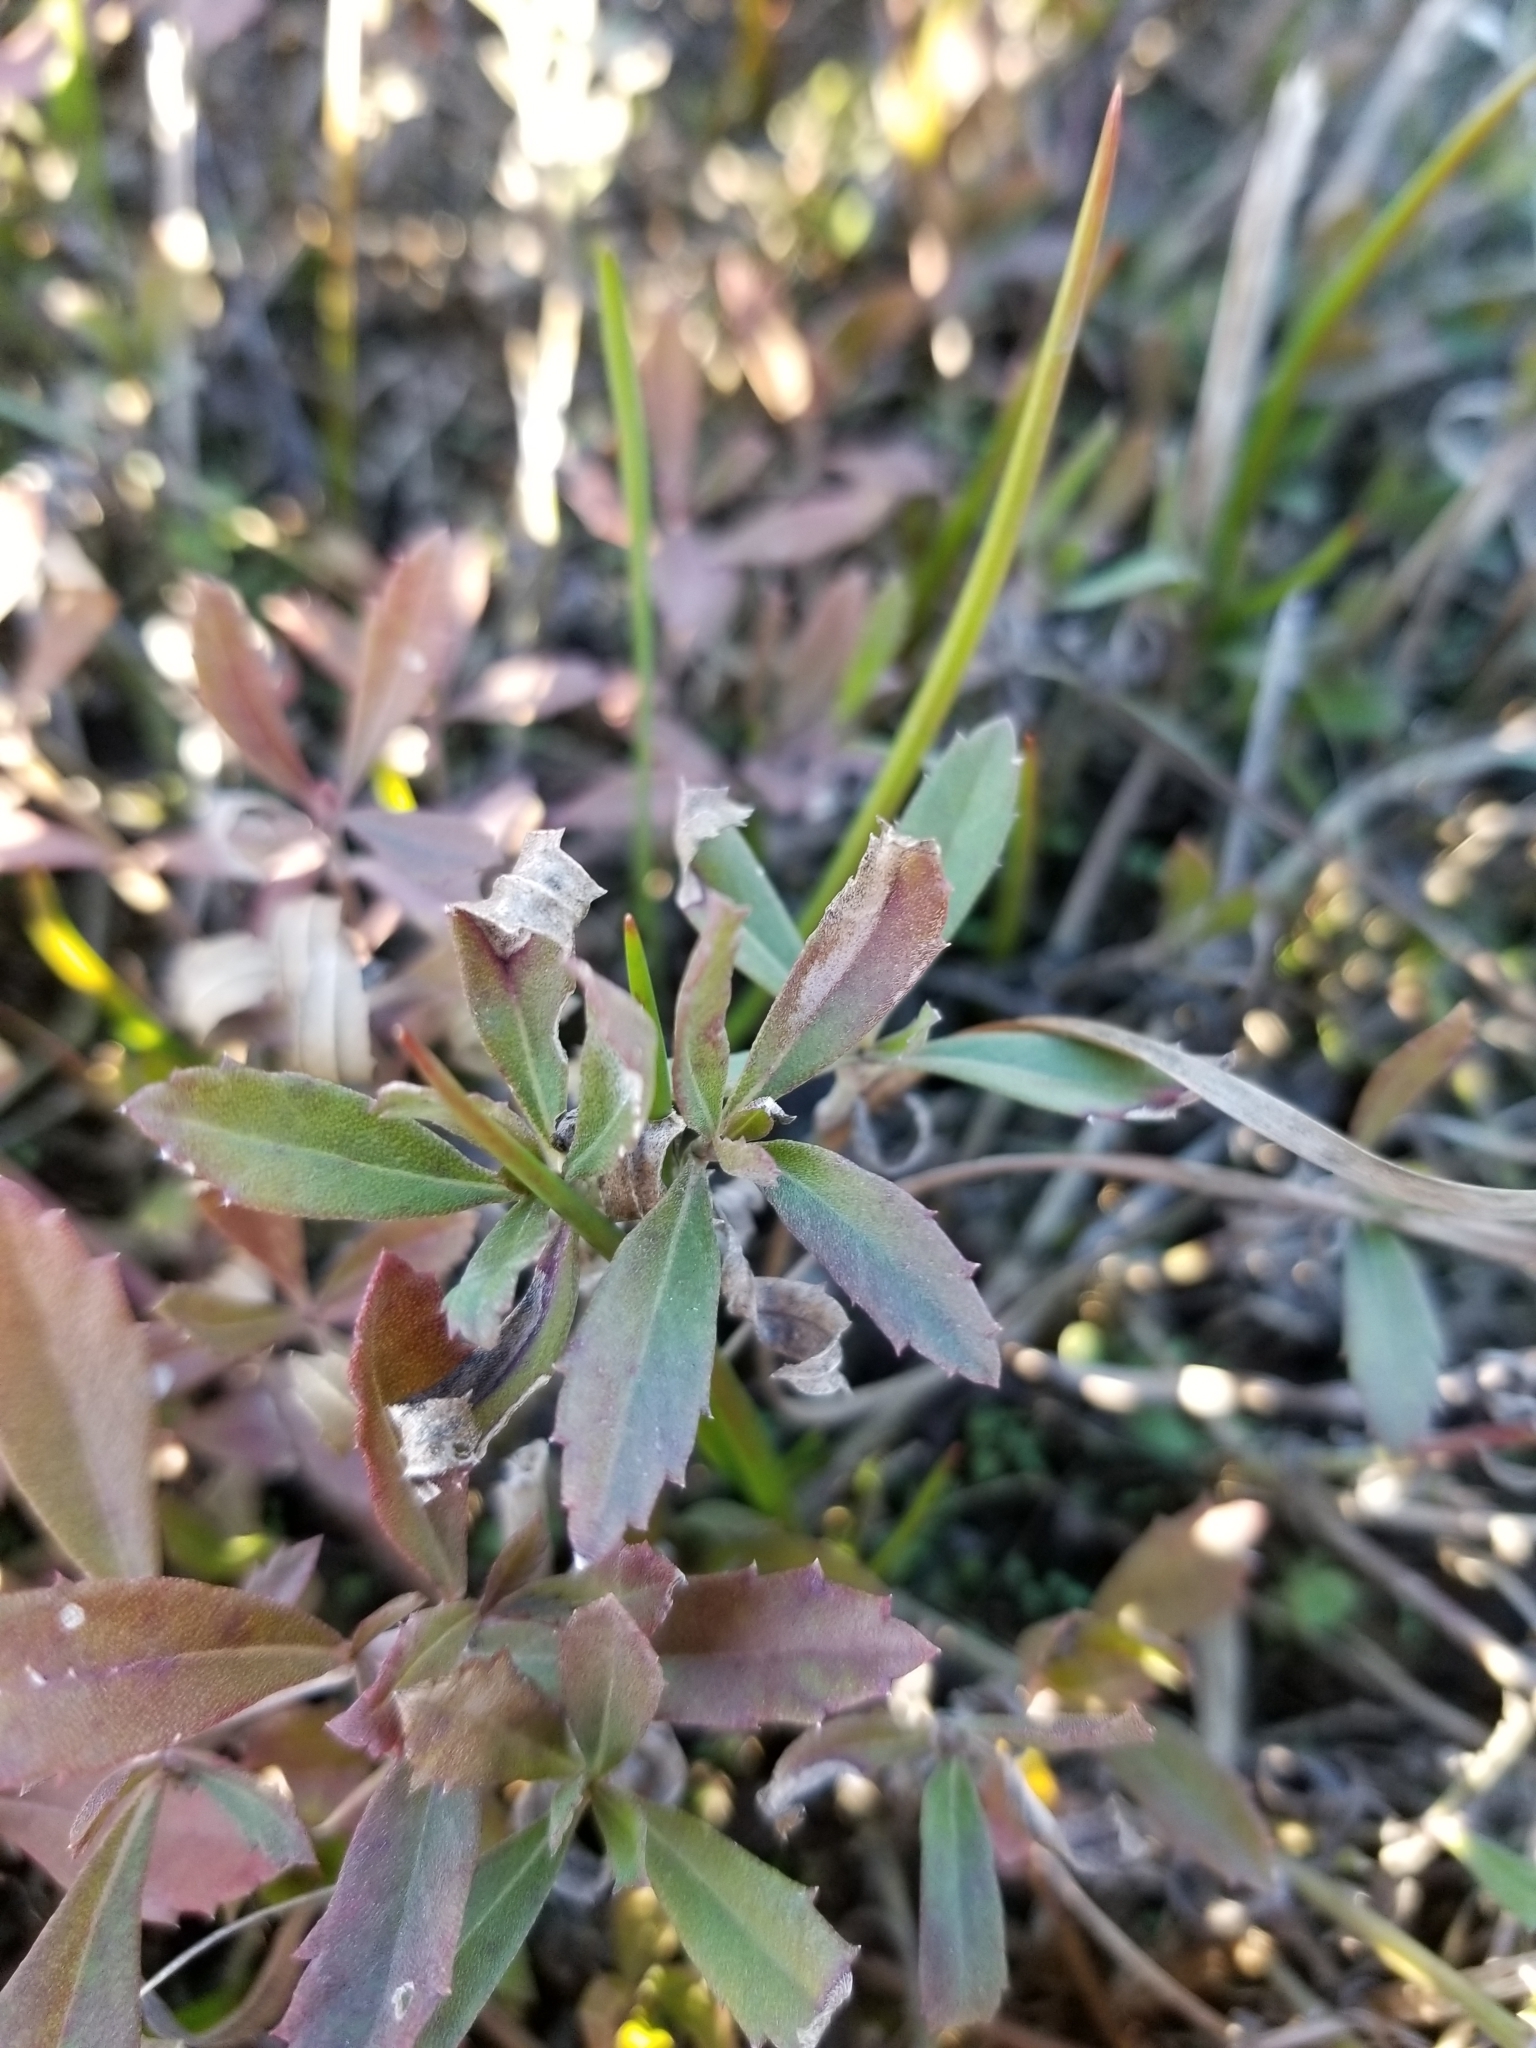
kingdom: Plantae
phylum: Tracheophyta
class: Magnoliopsida
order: Lamiales
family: Verbenaceae
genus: Phyla
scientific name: Phyla nodiflora
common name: Frogfruit
